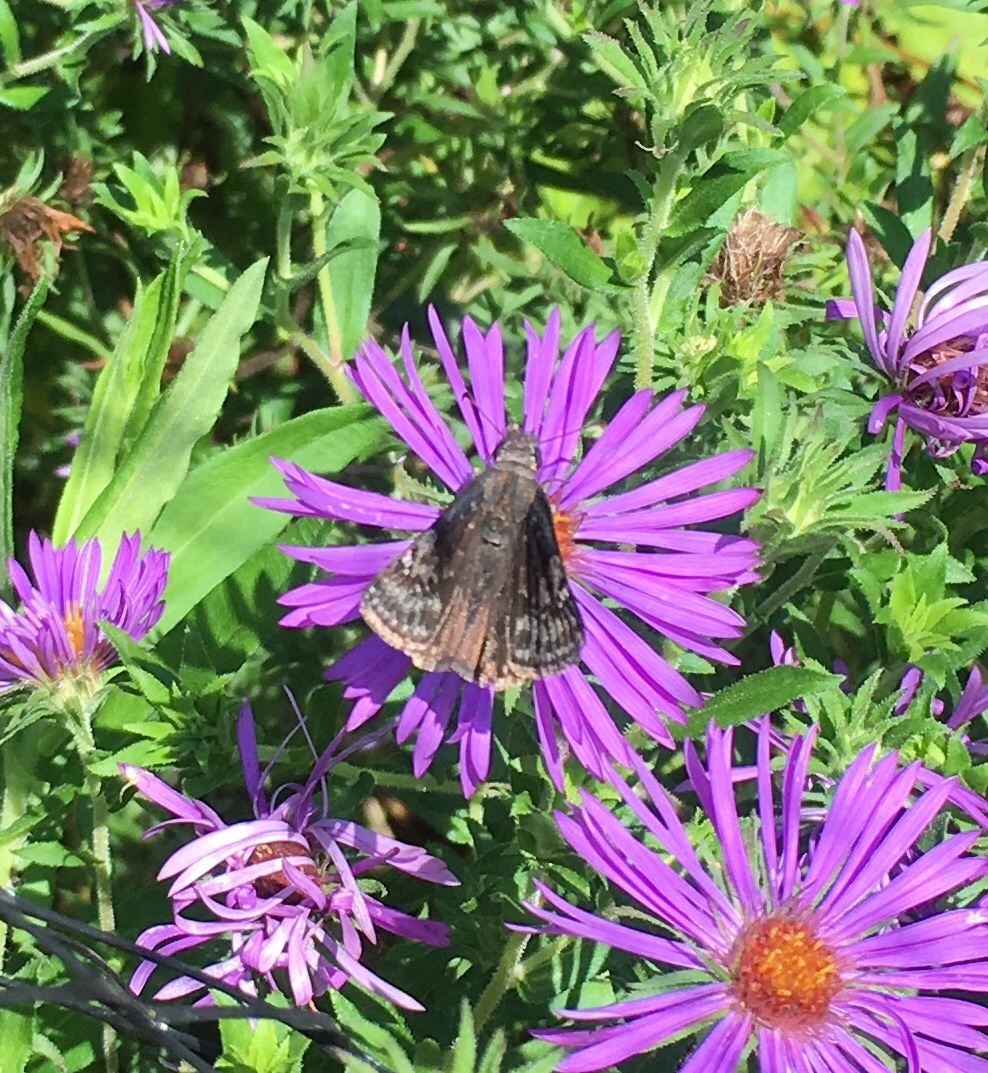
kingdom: Animalia
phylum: Arthropoda
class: Insecta
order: Lepidoptera
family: Hesperiidae
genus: Erynnis
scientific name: Erynnis baptisiae
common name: Wild indigo duskywing
